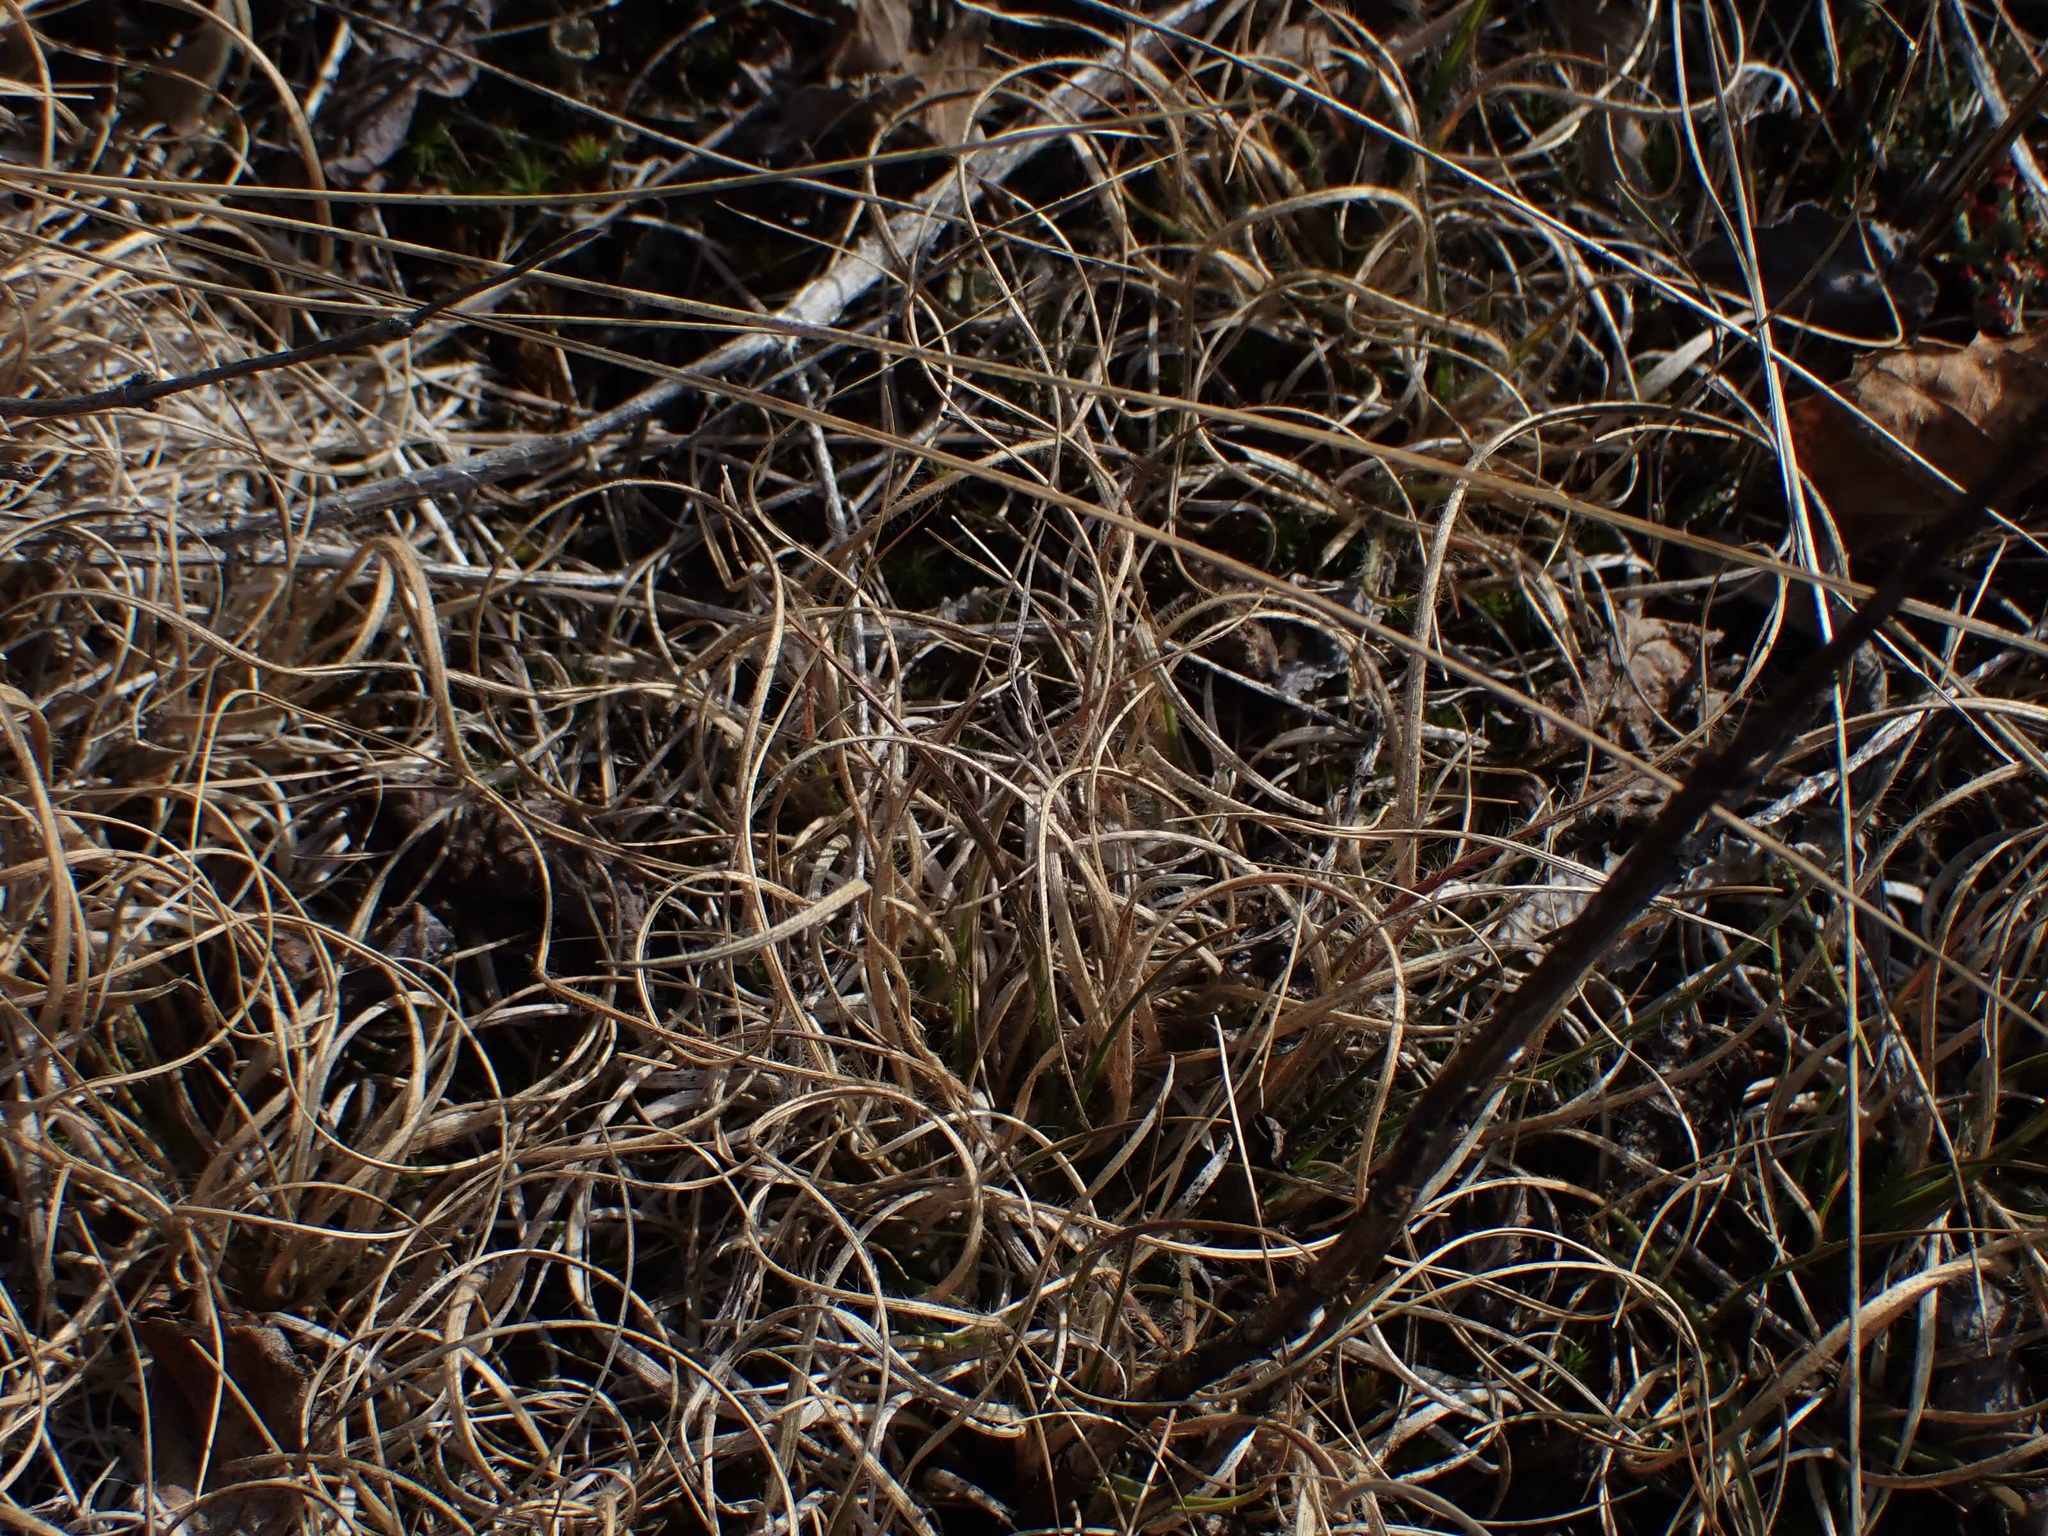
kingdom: Plantae
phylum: Tracheophyta
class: Liliopsida
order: Poales
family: Poaceae
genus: Danthonia
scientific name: Danthonia spicata
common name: Common wild oatgrass
